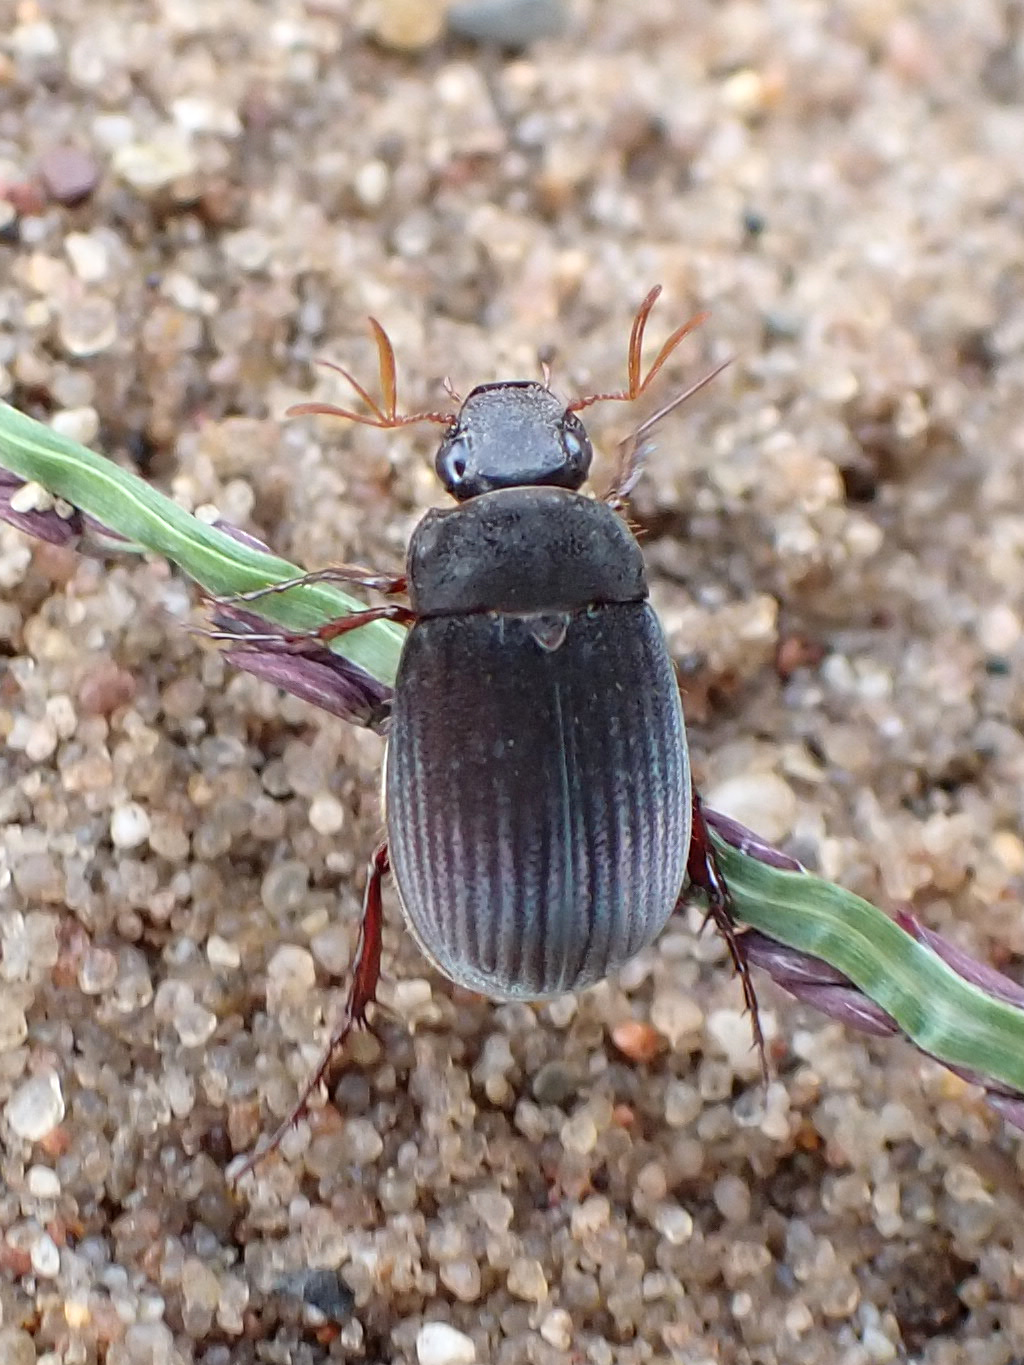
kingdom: Animalia
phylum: Arthropoda
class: Insecta
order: Coleoptera
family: Scarabaeidae
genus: Maladera
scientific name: Maladera holosericea
